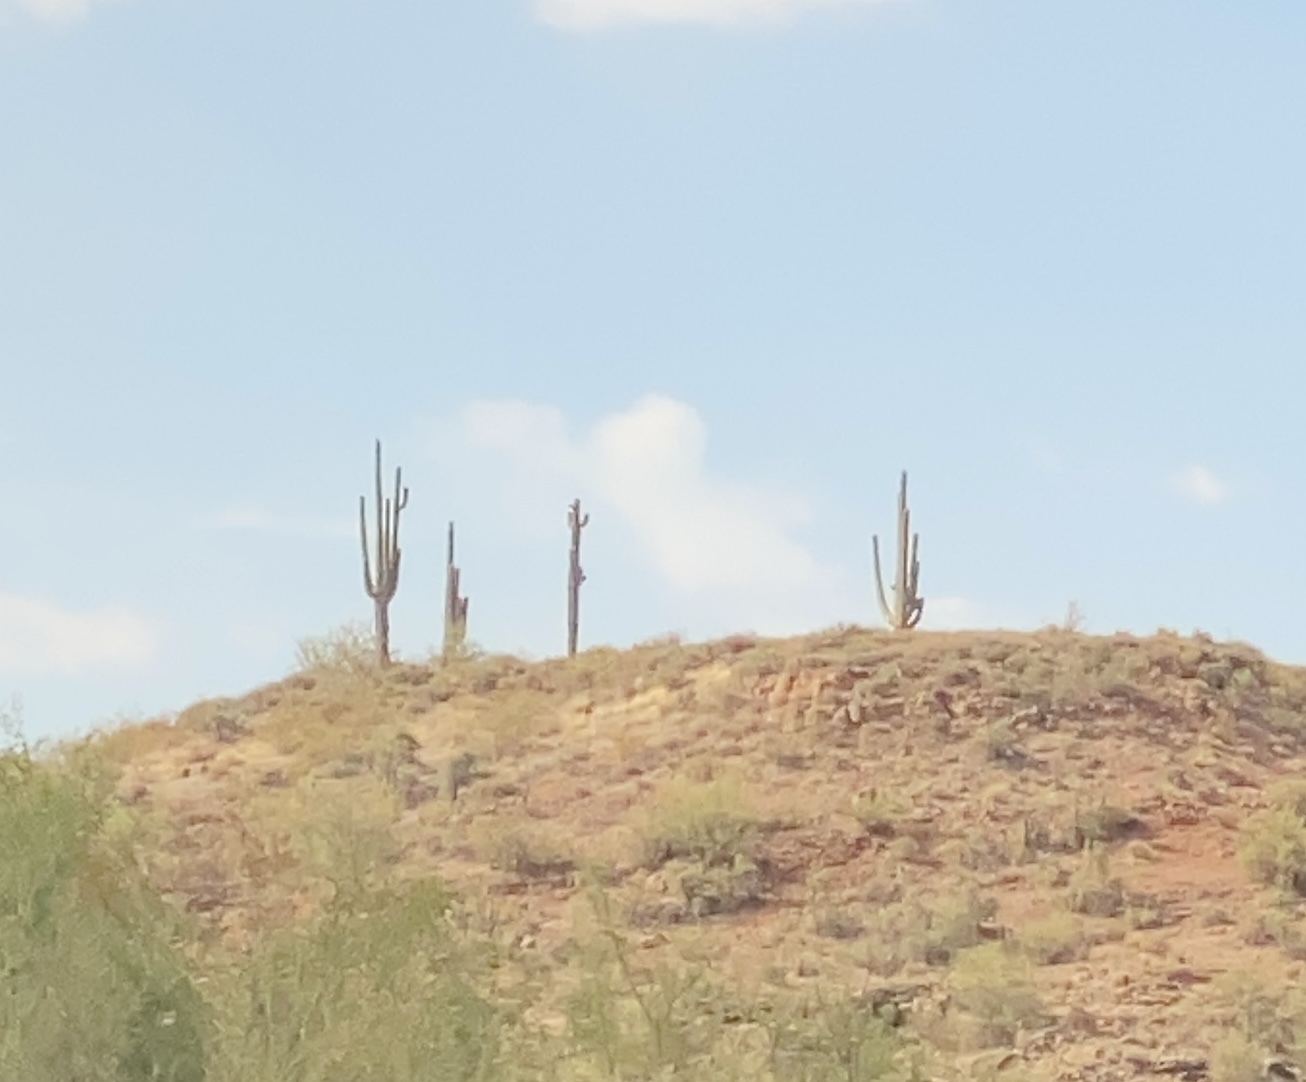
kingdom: Plantae
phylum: Tracheophyta
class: Magnoliopsida
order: Caryophyllales
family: Cactaceae
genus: Carnegiea
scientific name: Carnegiea gigantea
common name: Saguaro
